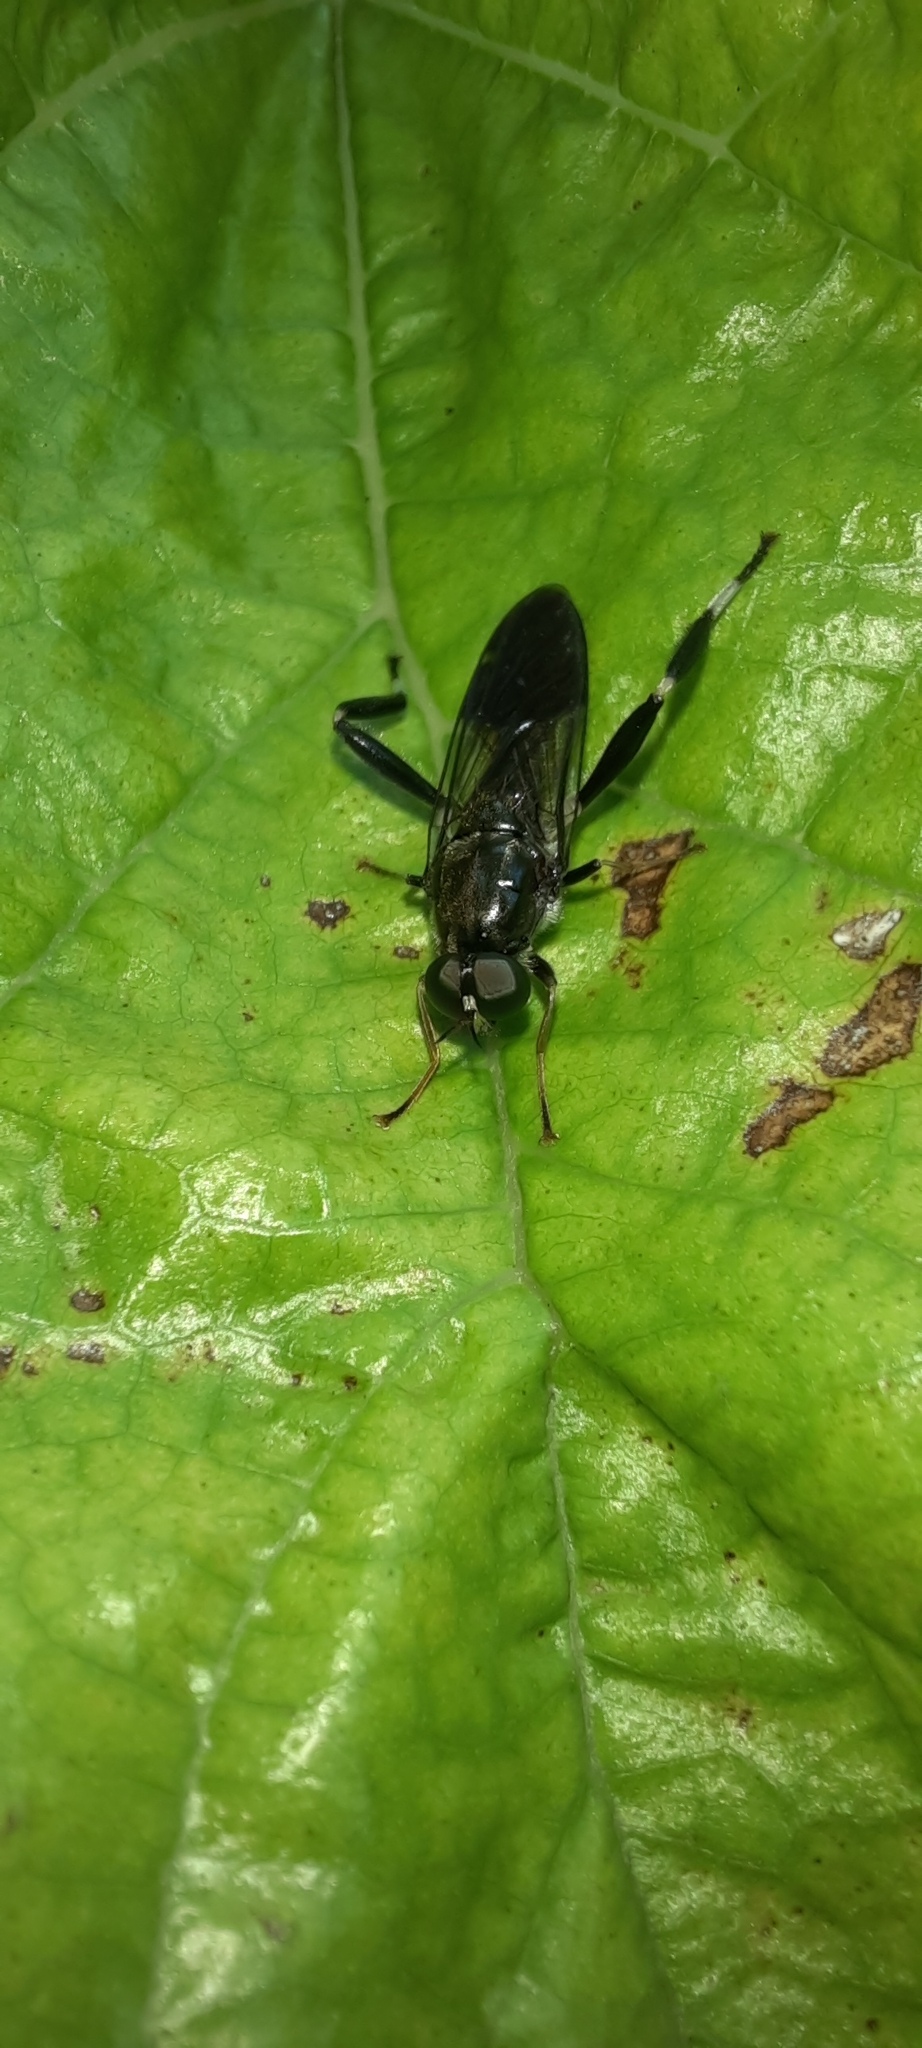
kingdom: Animalia
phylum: Arthropoda
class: Insecta
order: Diptera
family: Stratiomyidae
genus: Exaireta
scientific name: Exaireta spinigera
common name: Blue soldier fly
